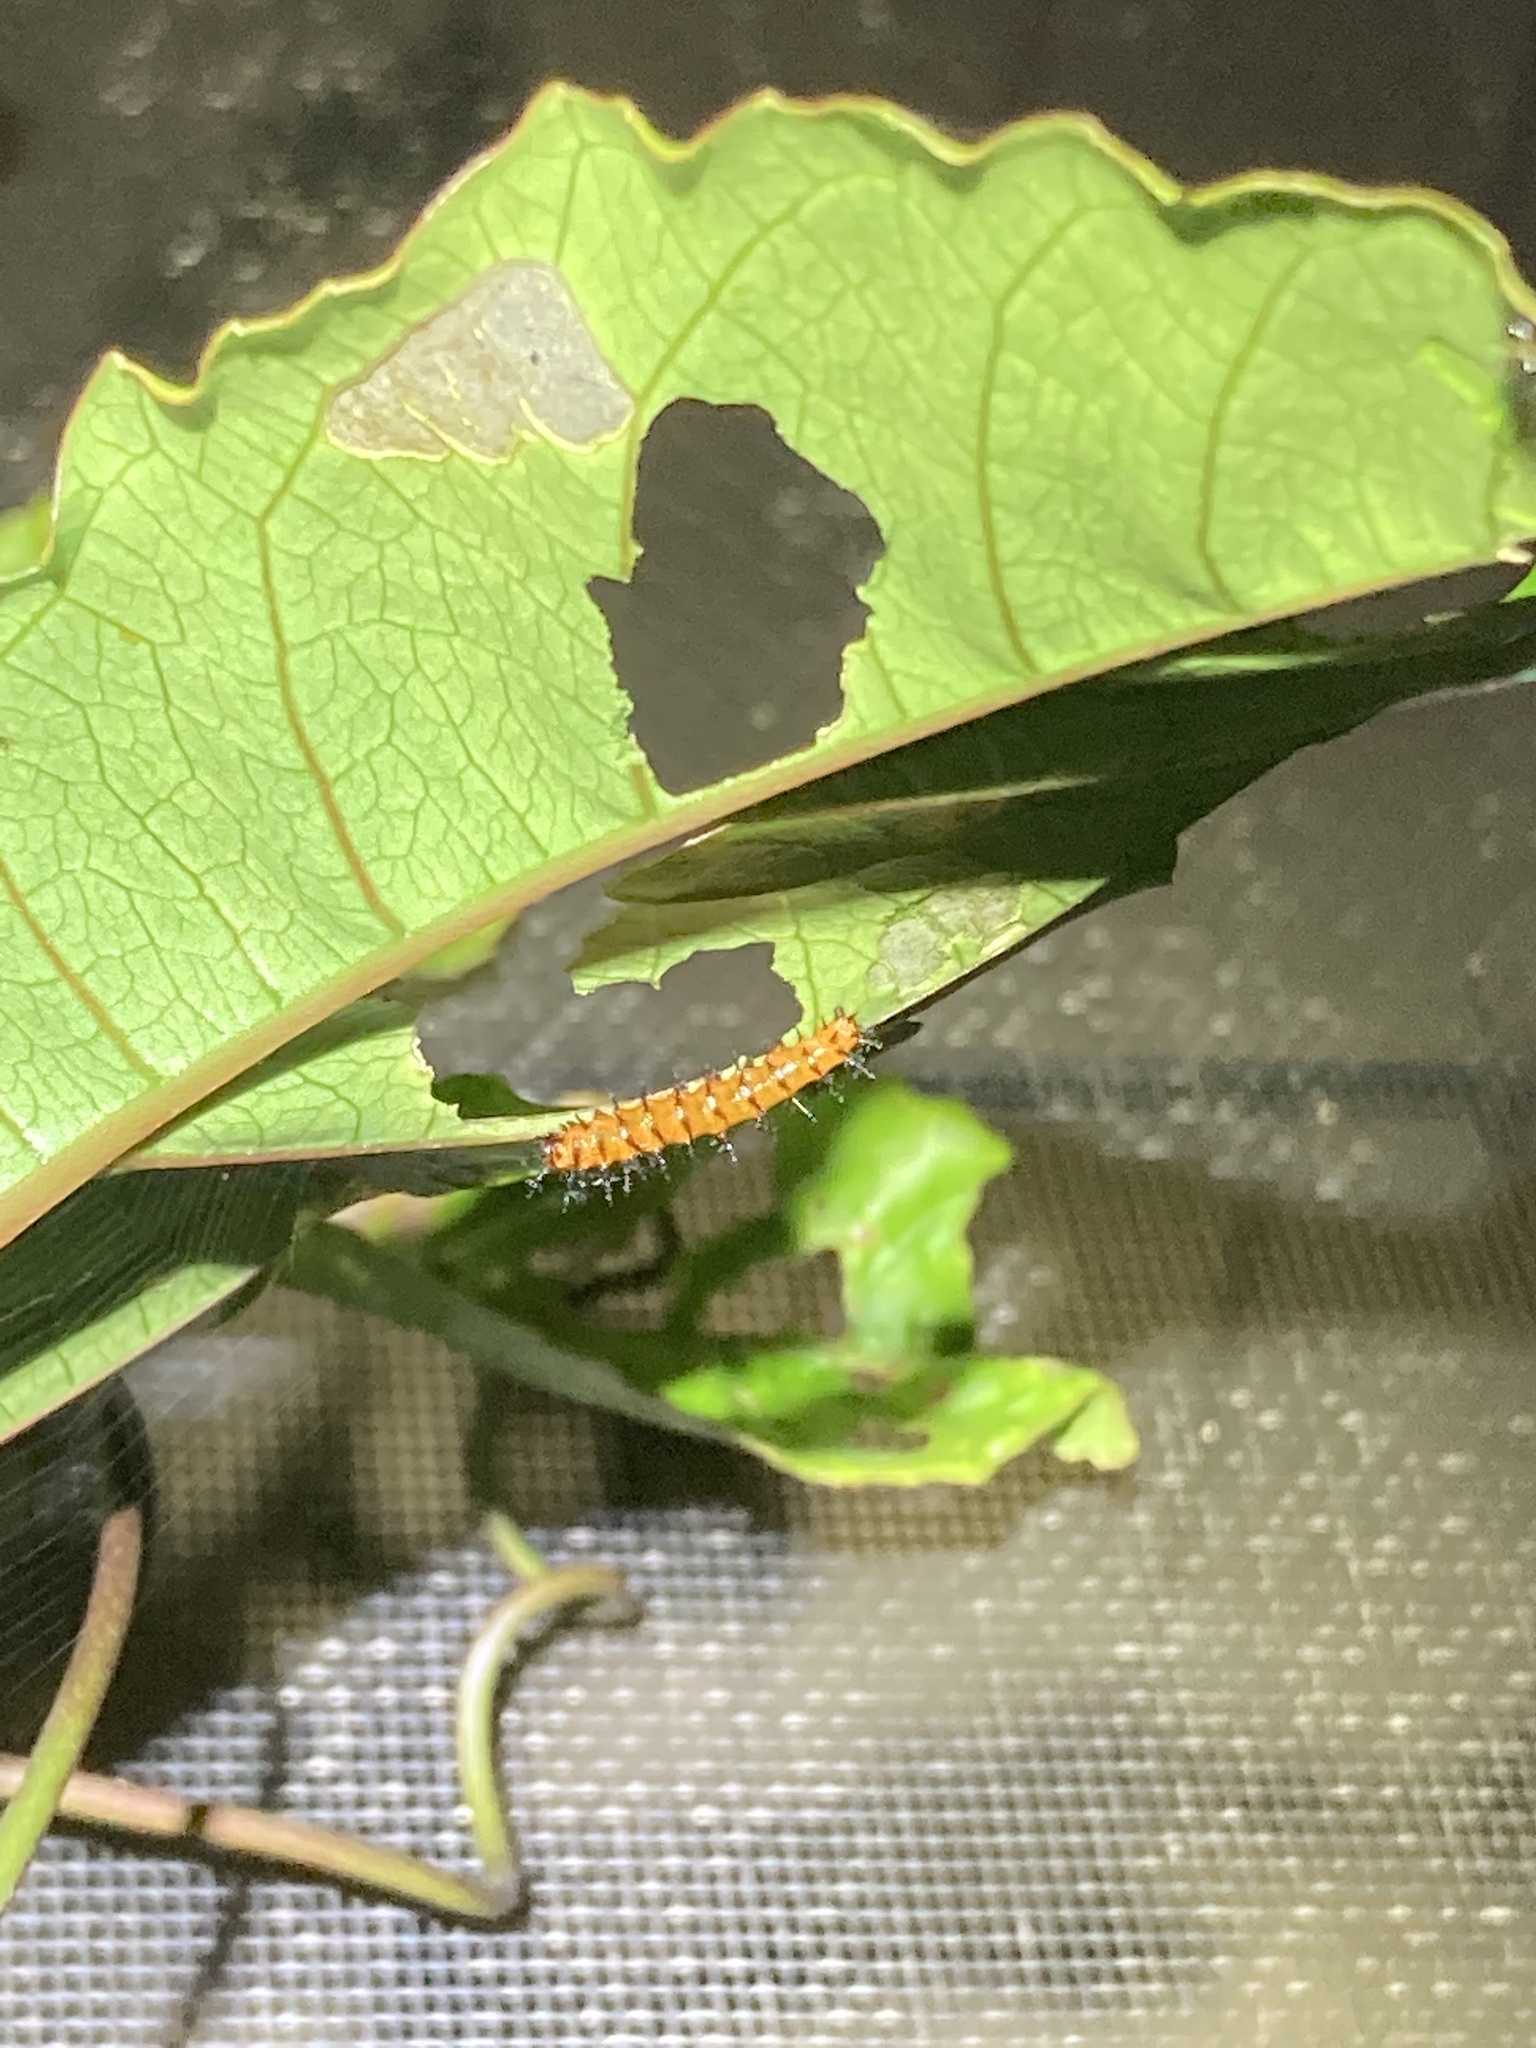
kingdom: Animalia
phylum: Arthropoda
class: Insecta
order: Lepidoptera
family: Nymphalidae
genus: Dione
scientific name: Dione vanillae
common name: Gulf fritillary
